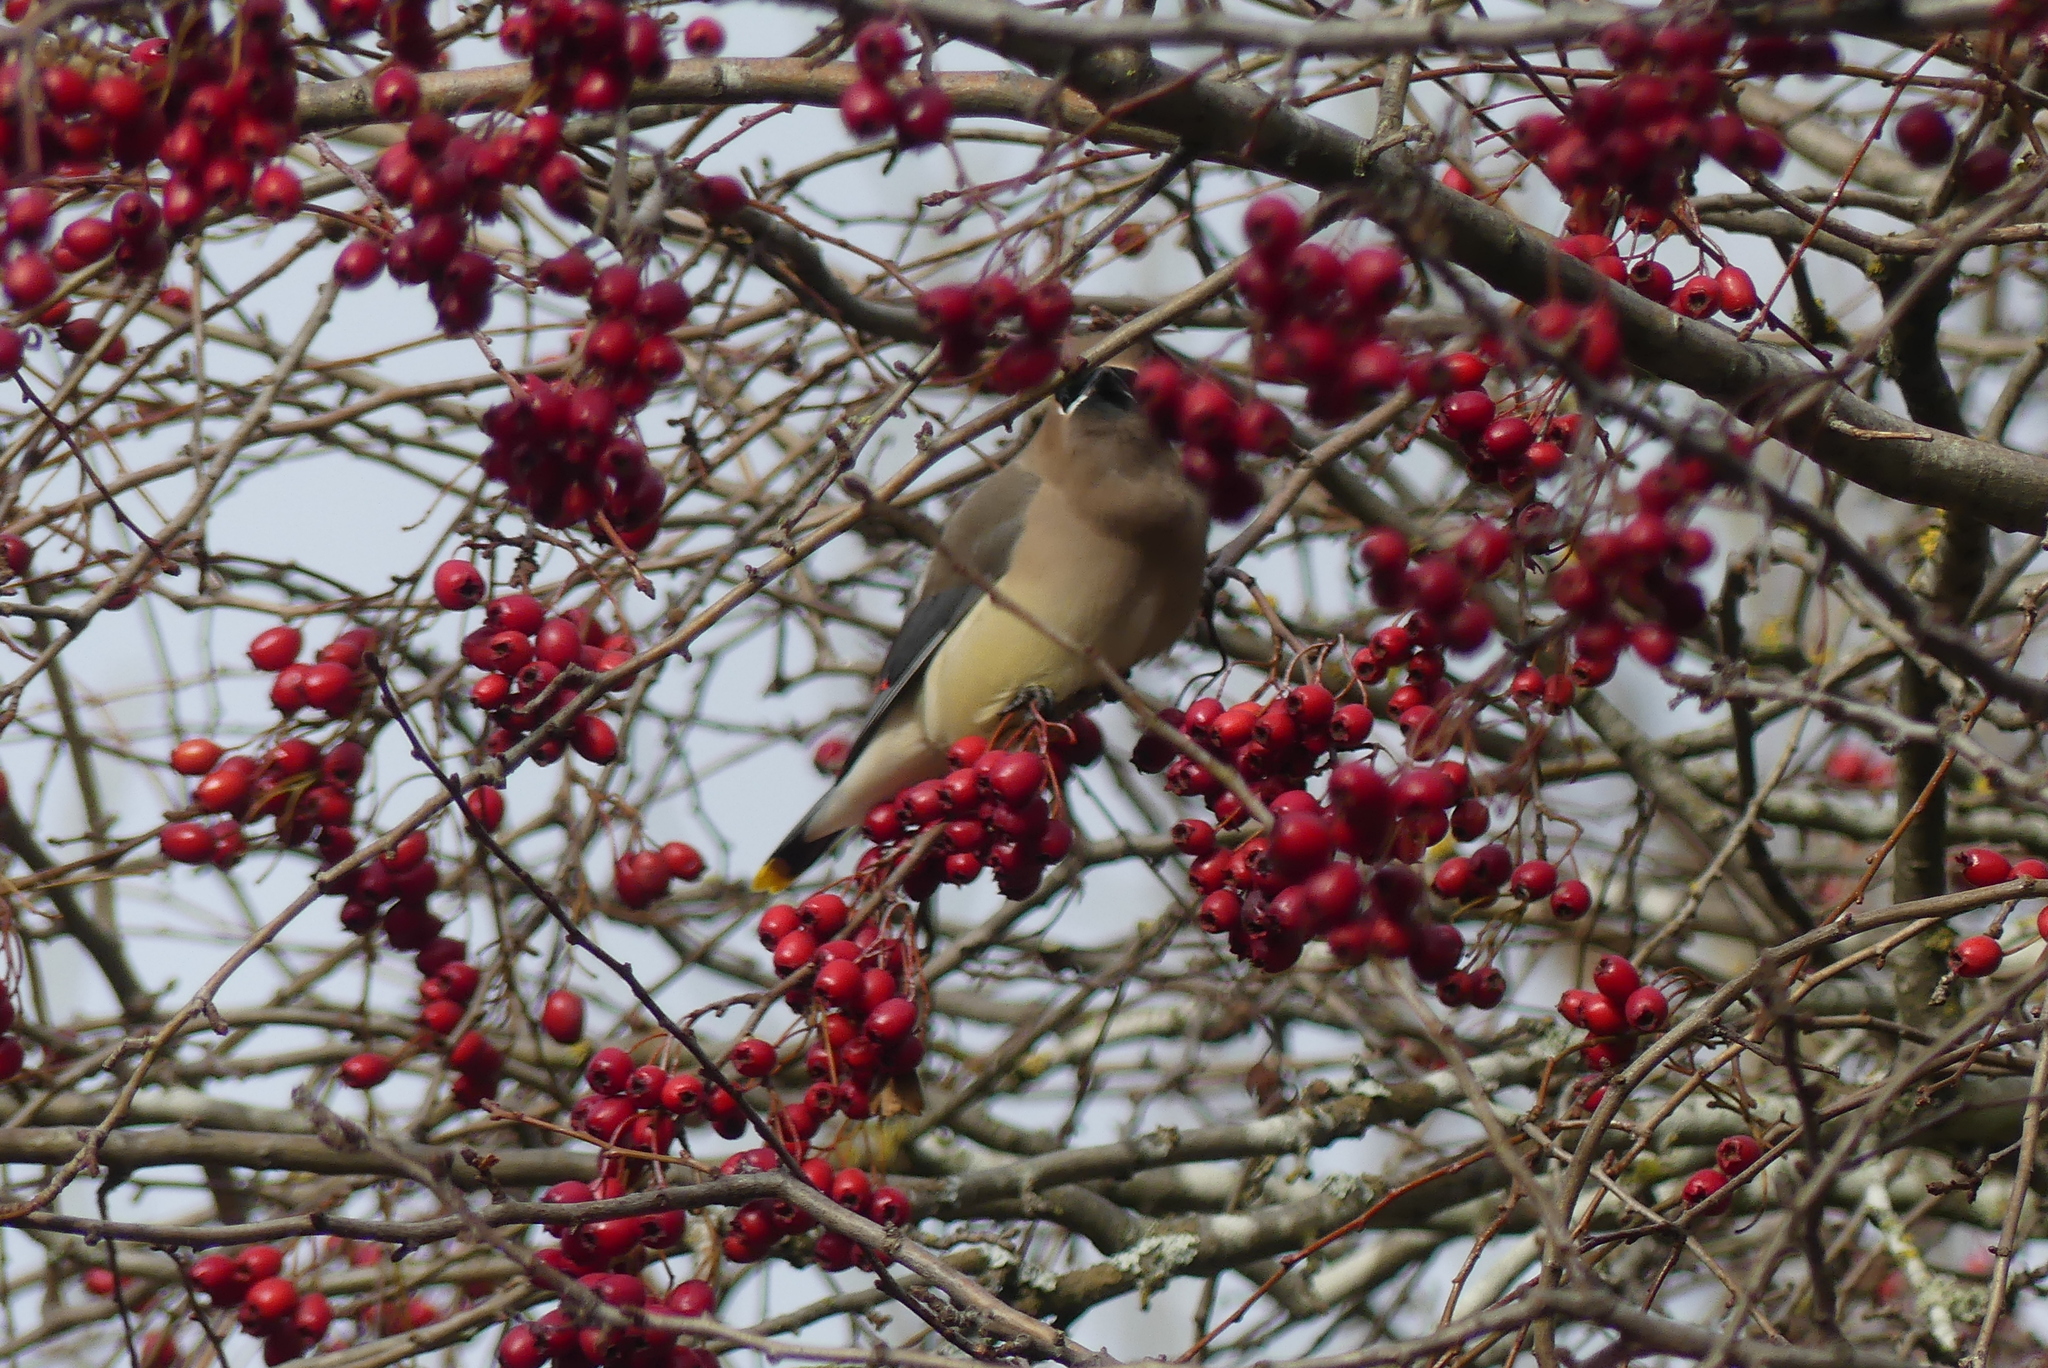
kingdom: Animalia
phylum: Chordata
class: Aves
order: Passeriformes
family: Bombycillidae
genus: Bombycilla
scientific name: Bombycilla cedrorum
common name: Cedar waxwing
